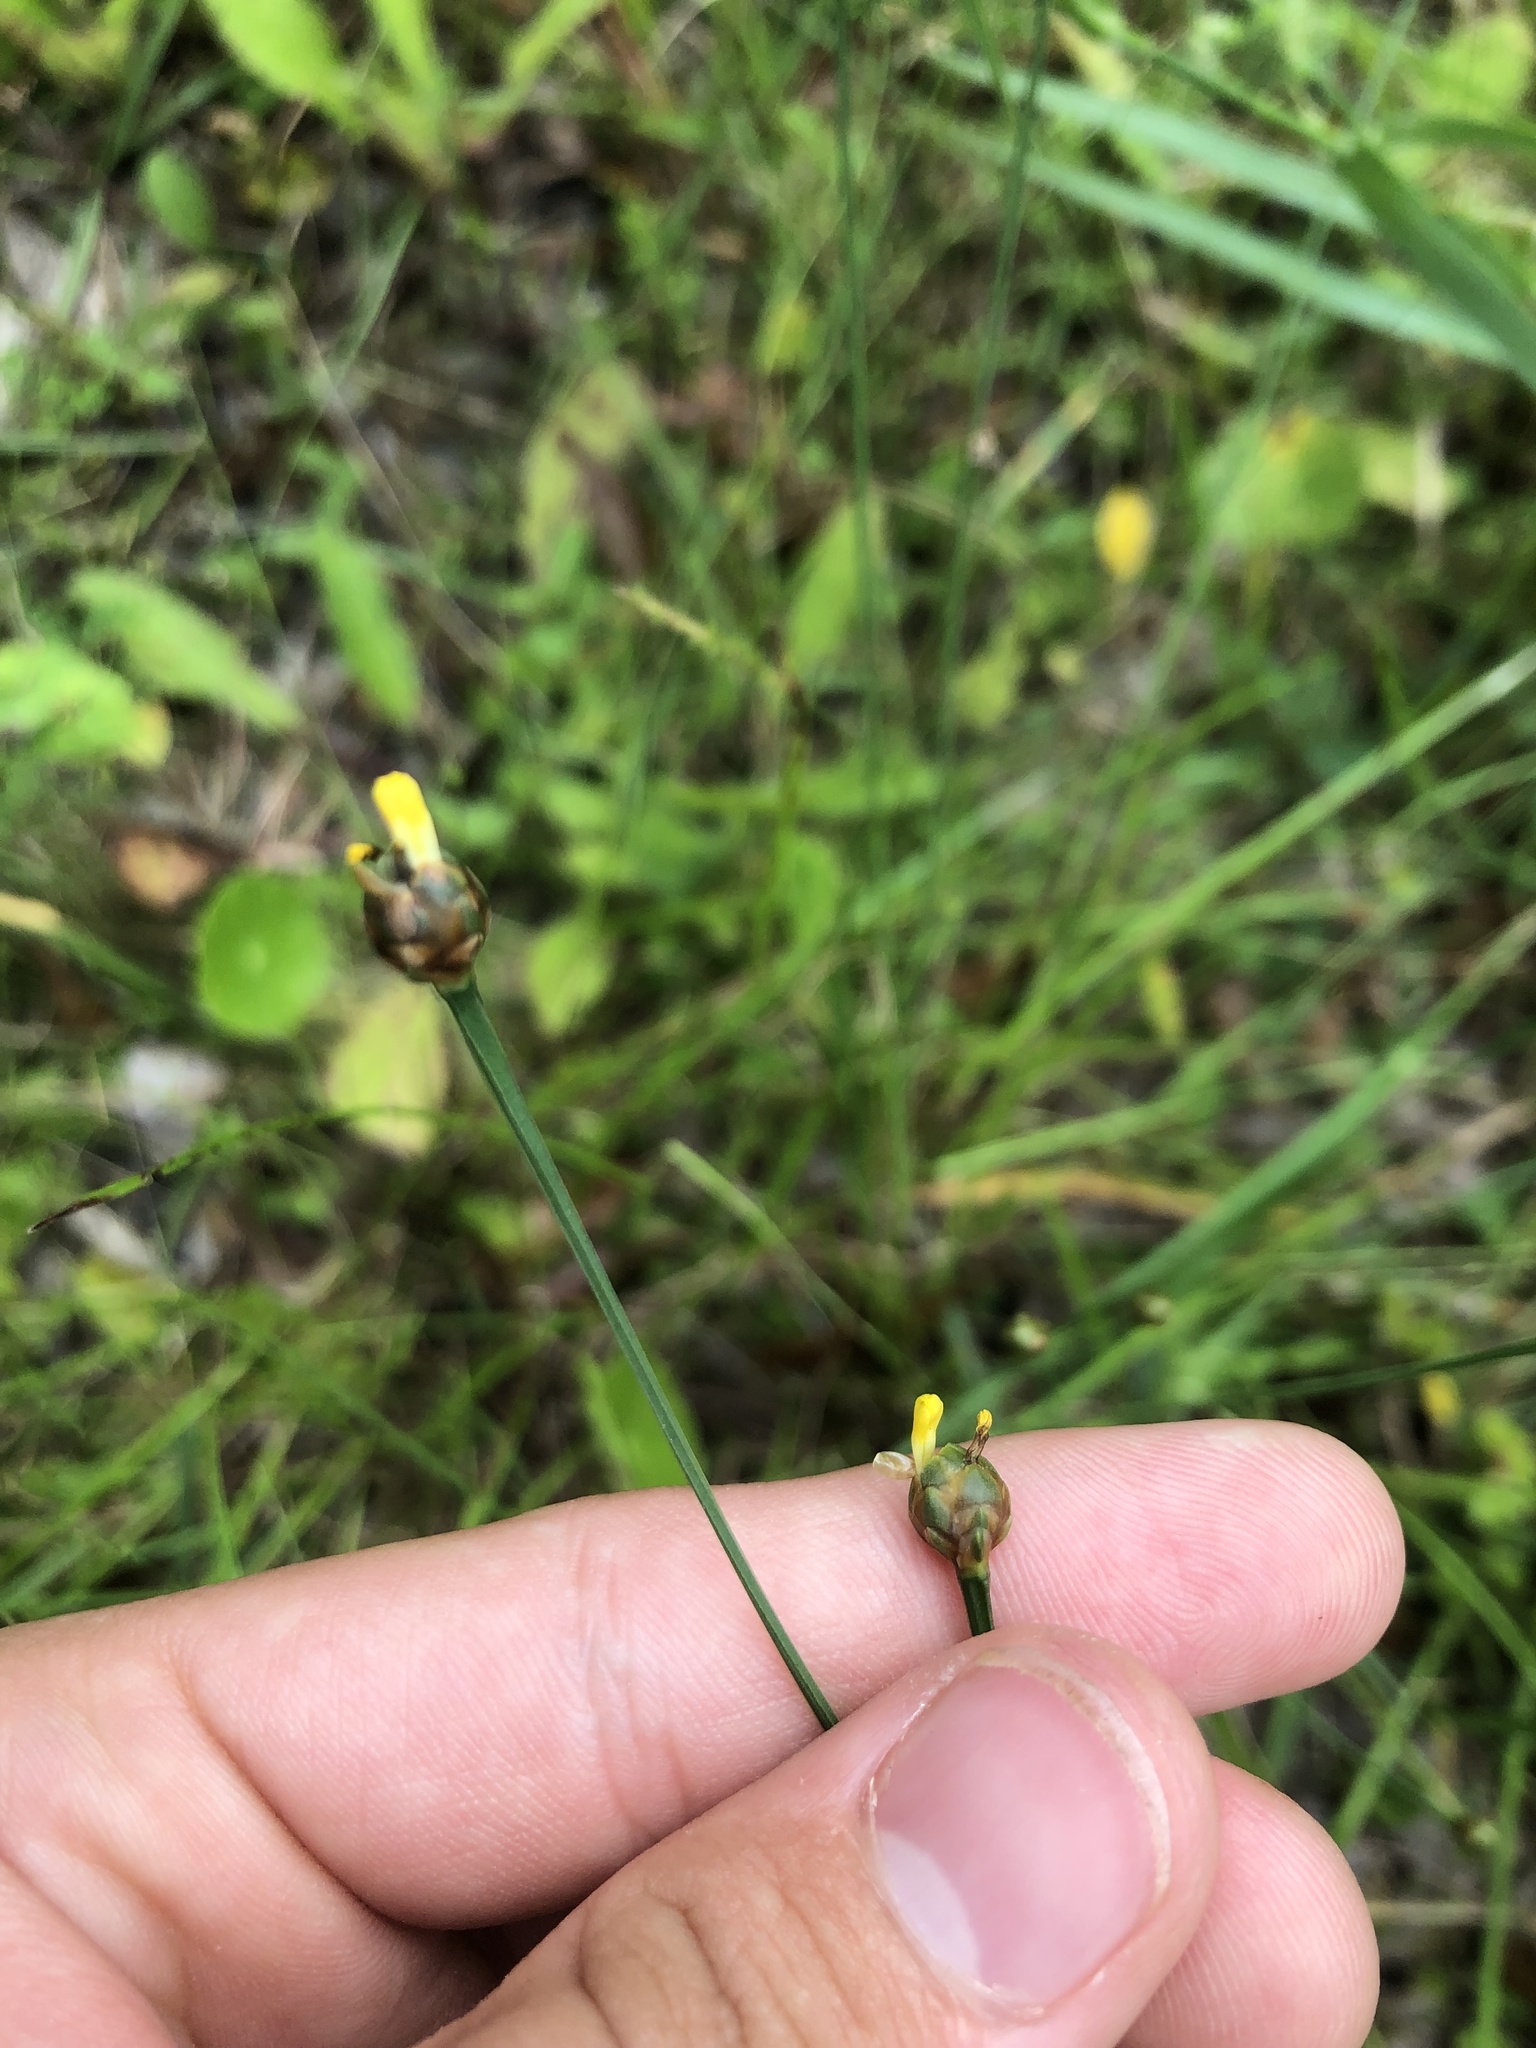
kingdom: Plantae
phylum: Tracheophyta
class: Liliopsida
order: Poales
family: Xyridaceae
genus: Xyris
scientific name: Xyris jupicai
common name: Richard's yelloweyed grass
